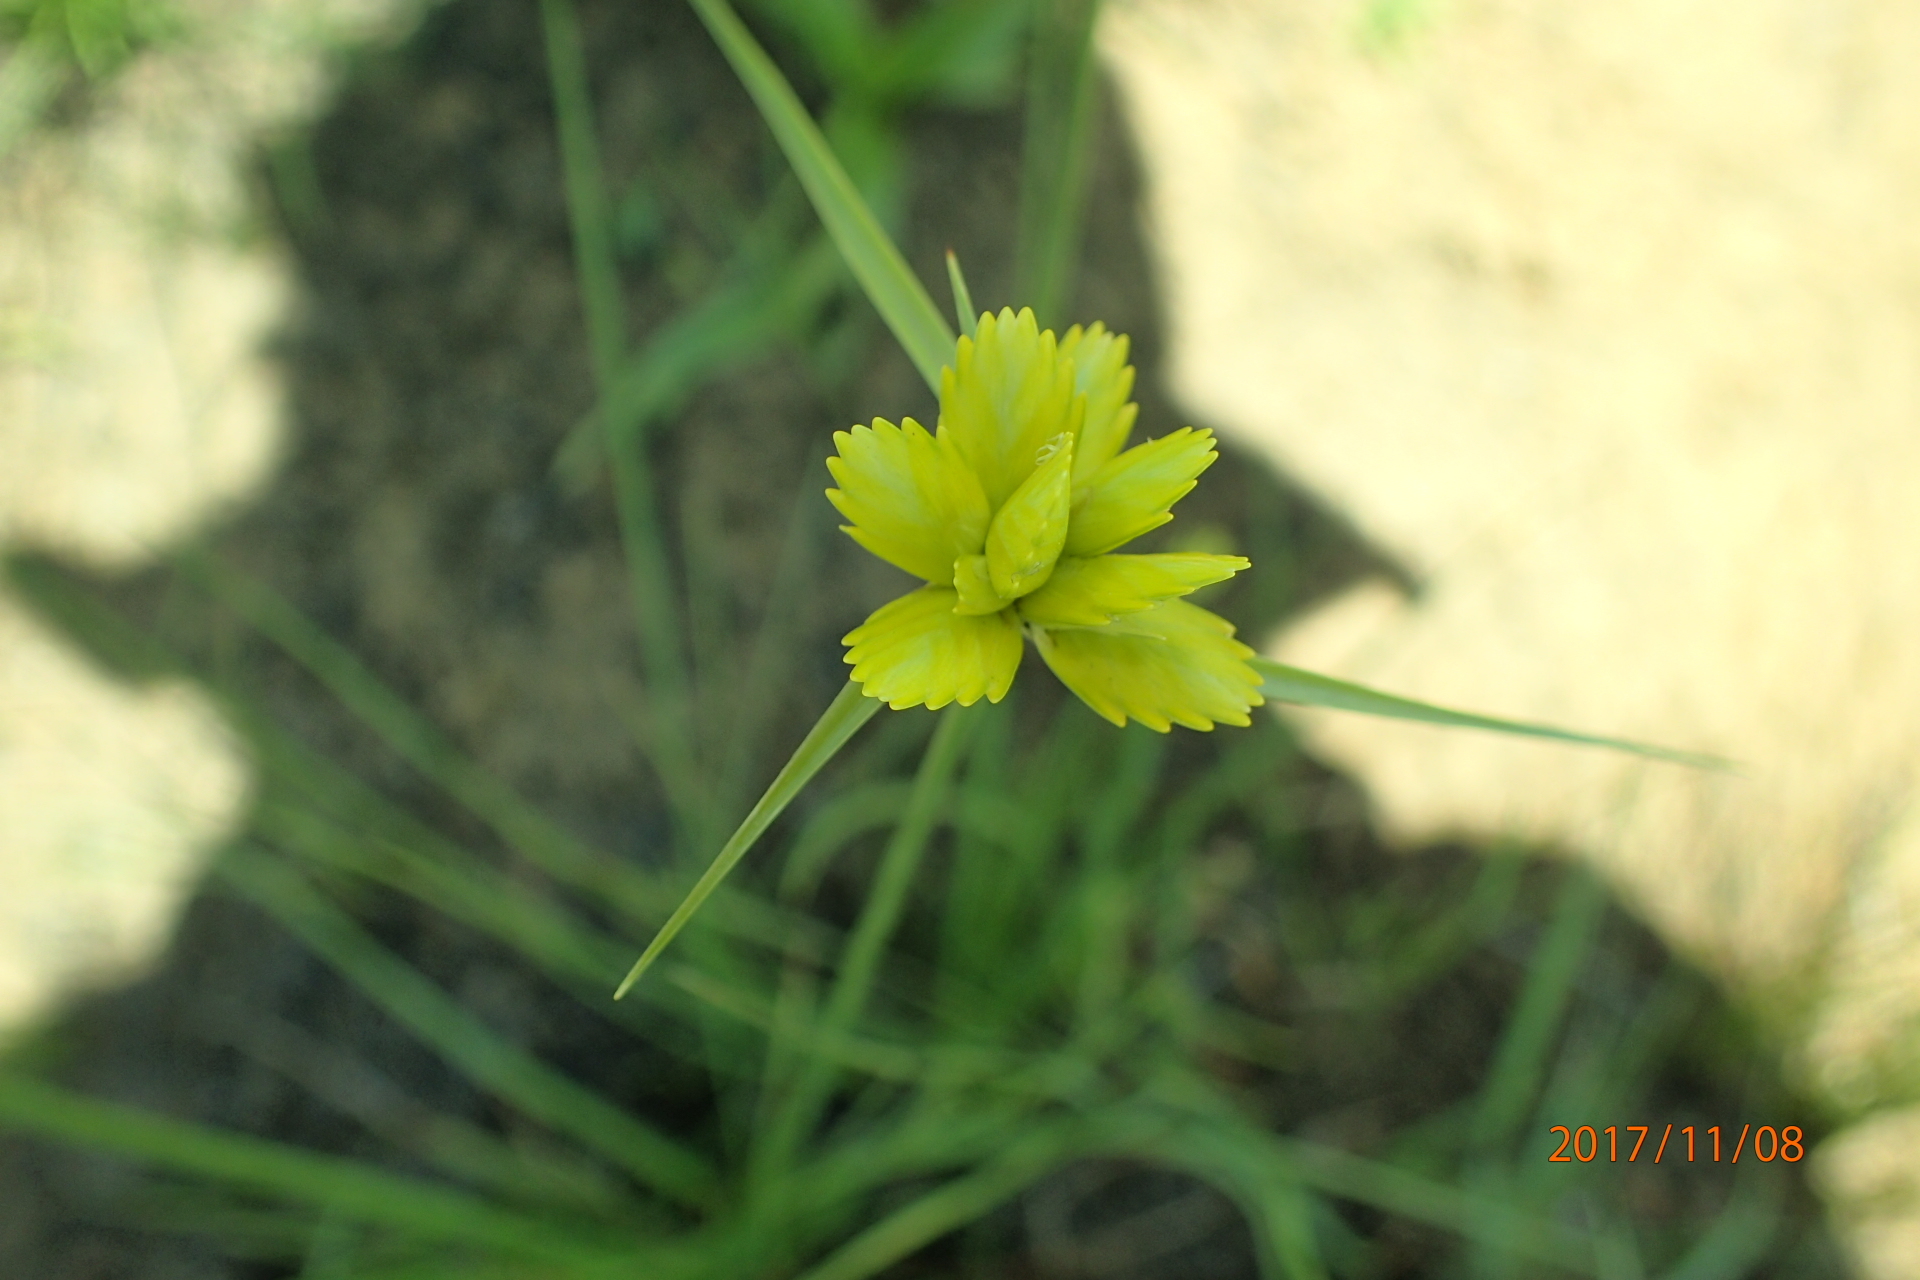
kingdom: Plantae
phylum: Tracheophyta
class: Liliopsida
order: Poales
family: Cyperaceae
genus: Cyperus
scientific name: Cyperus sphaerocephalus
